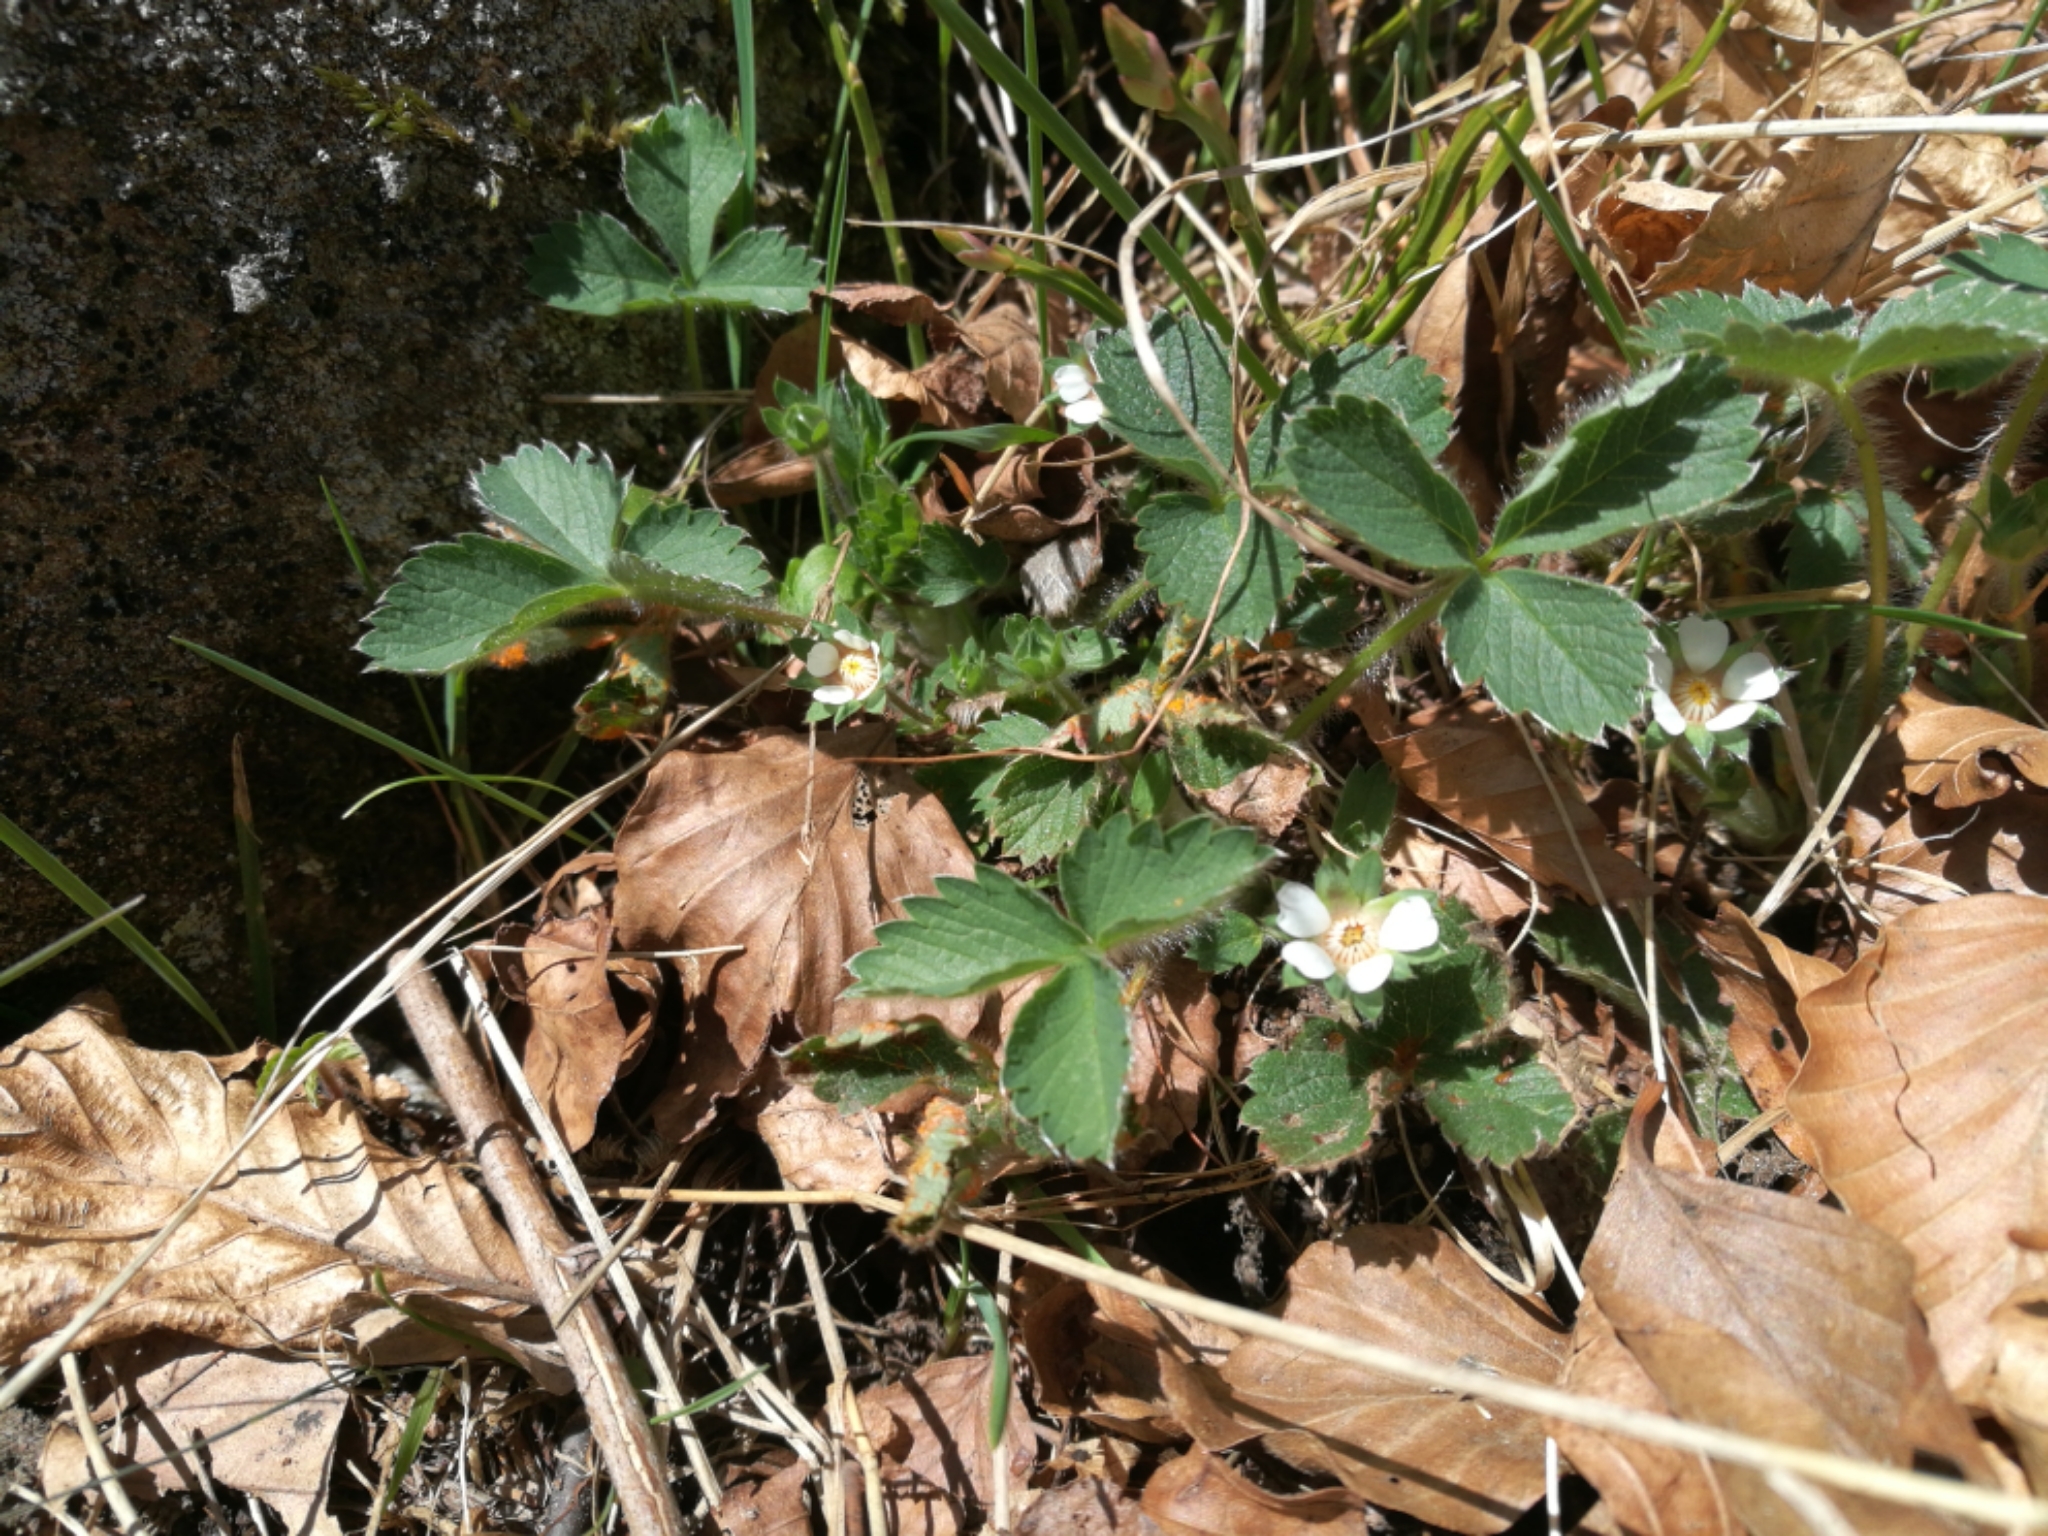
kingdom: Plantae
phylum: Tracheophyta
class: Magnoliopsida
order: Rosales
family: Rosaceae
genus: Potentilla
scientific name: Potentilla micrantha
